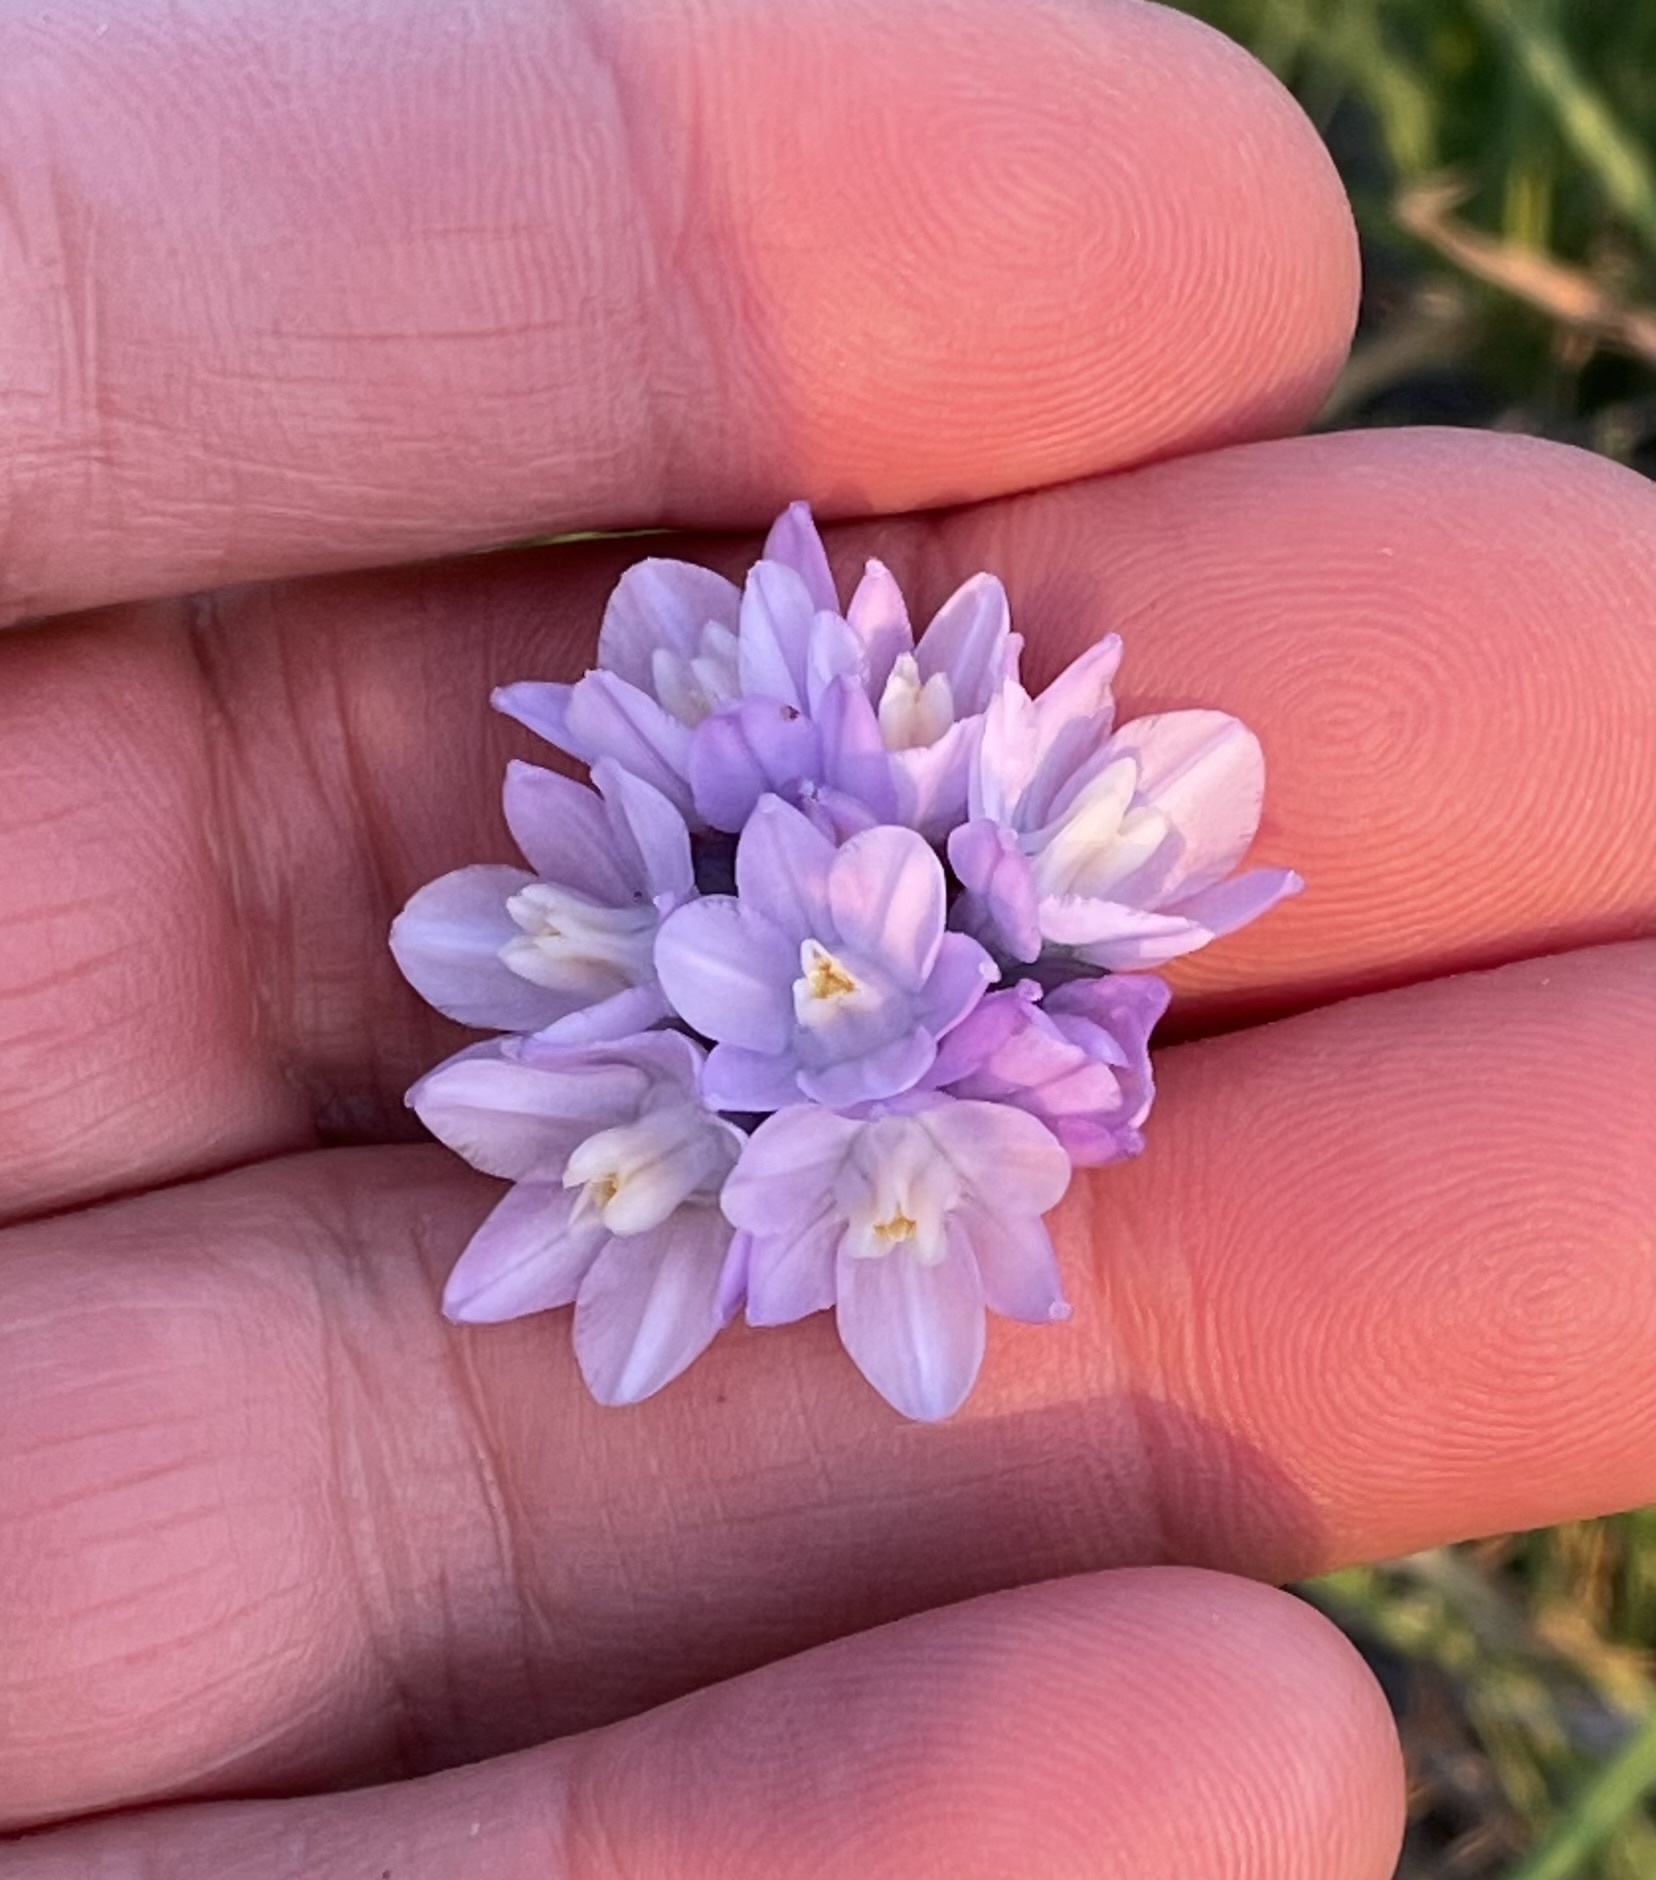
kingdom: Plantae
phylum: Tracheophyta
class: Liliopsida
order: Asparagales
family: Asparagaceae
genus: Dipterostemon
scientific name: Dipterostemon capitatus
